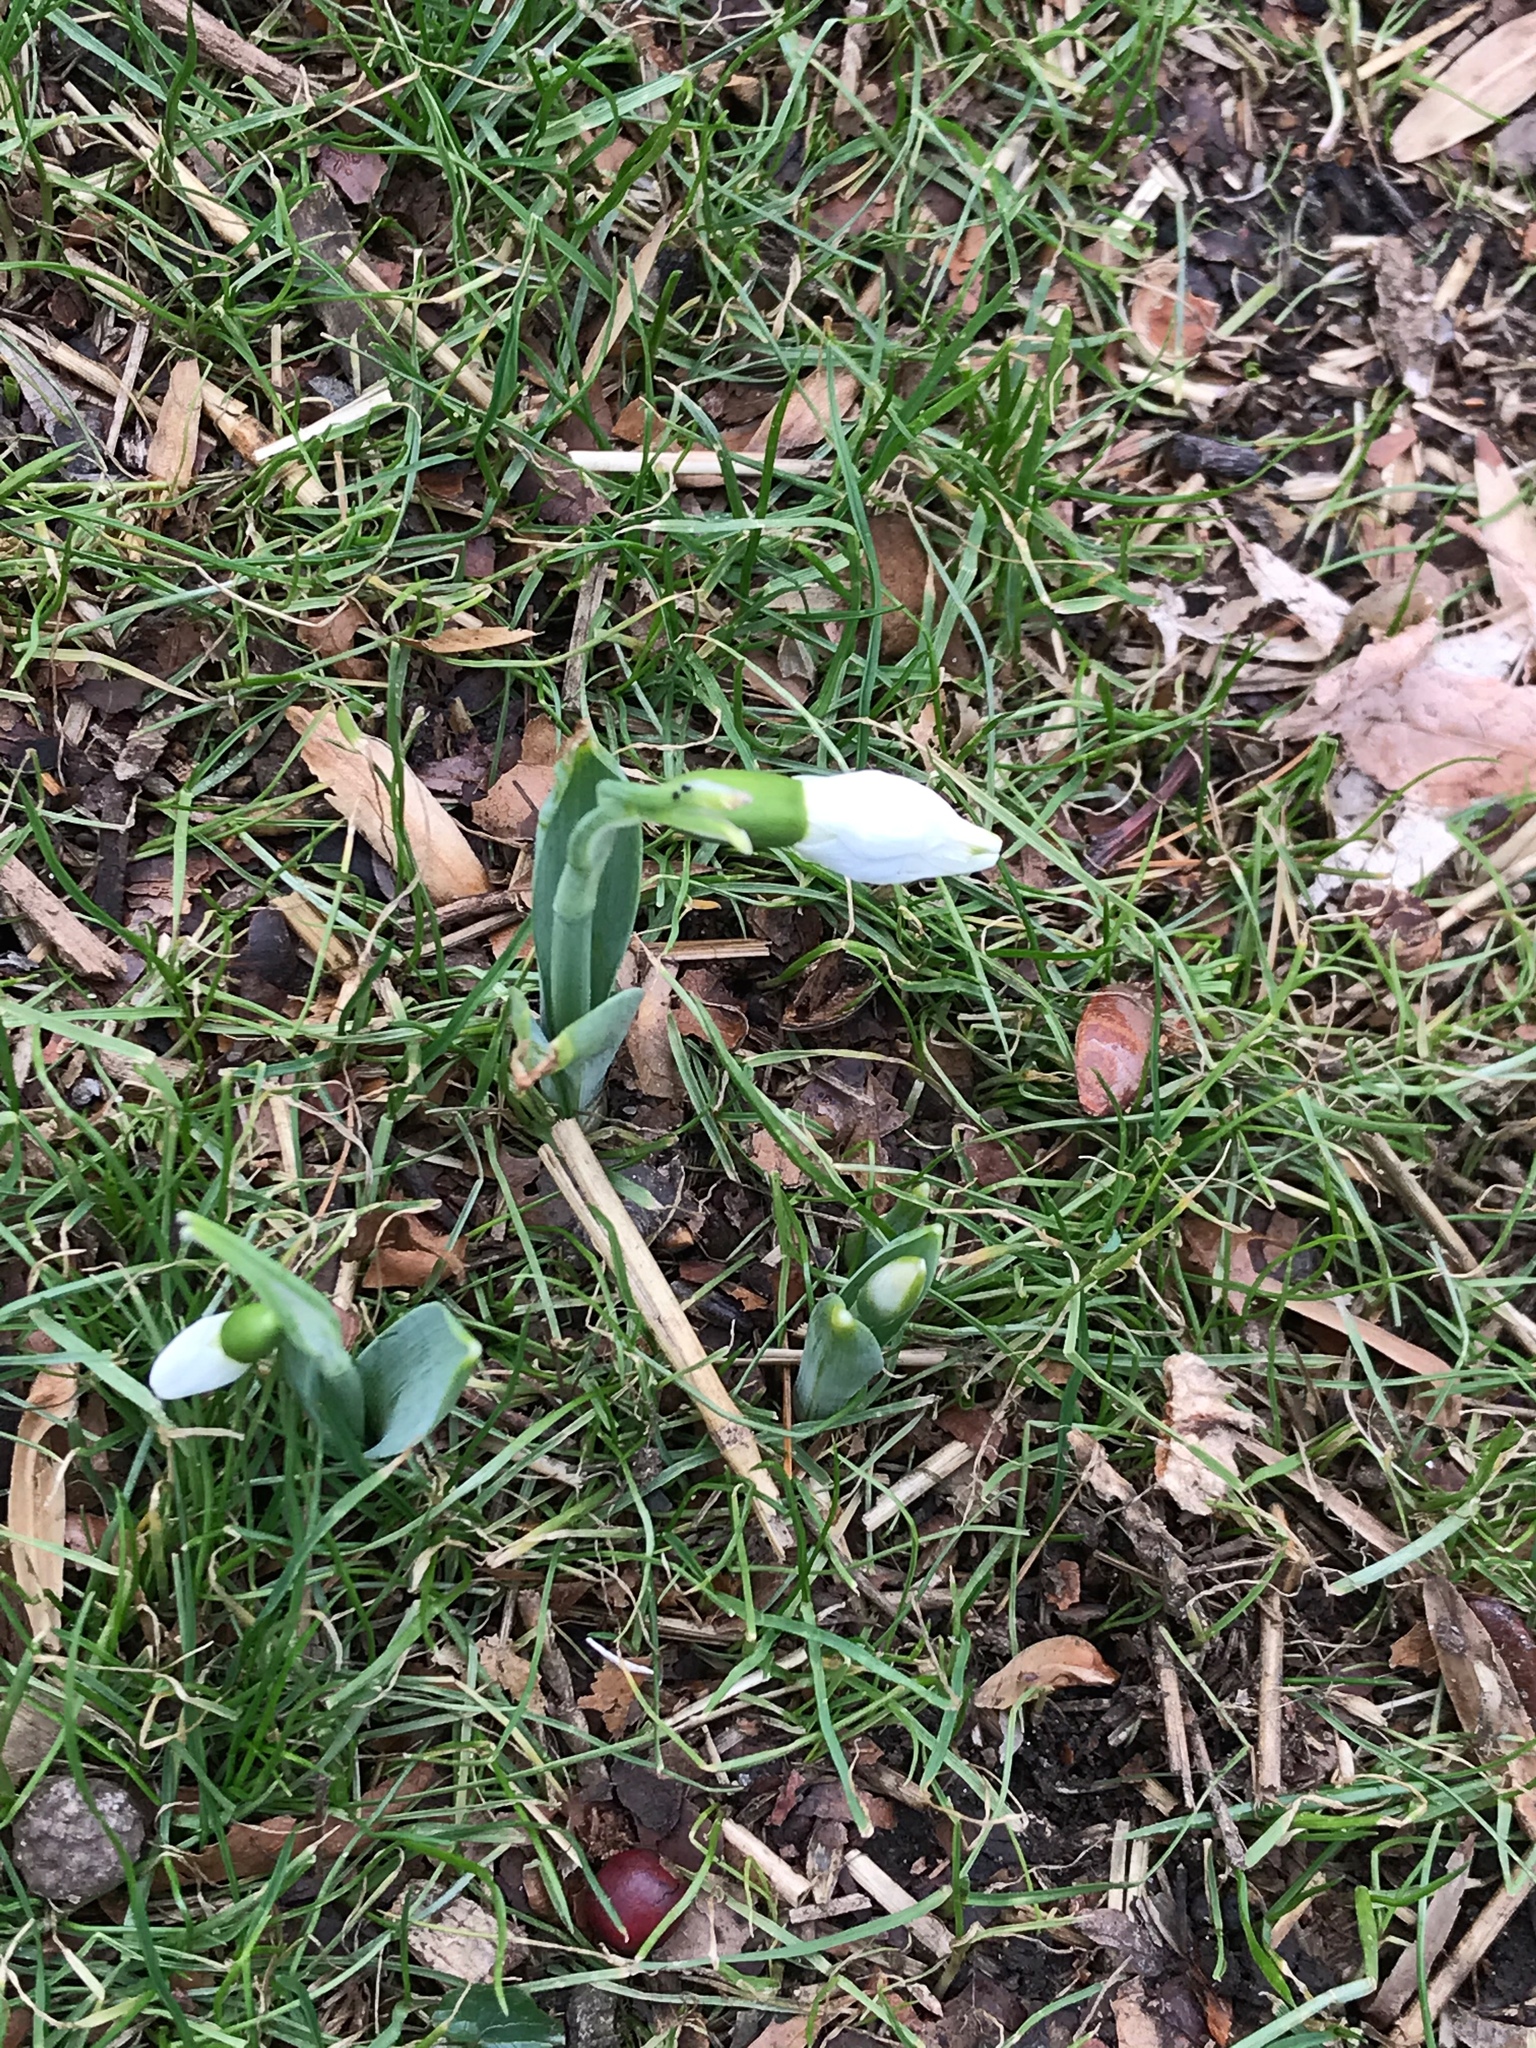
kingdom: Plantae
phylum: Tracheophyta
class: Liliopsida
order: Asparagales
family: Amaryllidaceae
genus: Galanthus
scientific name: Galanthus nivalis
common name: Snowdrop
